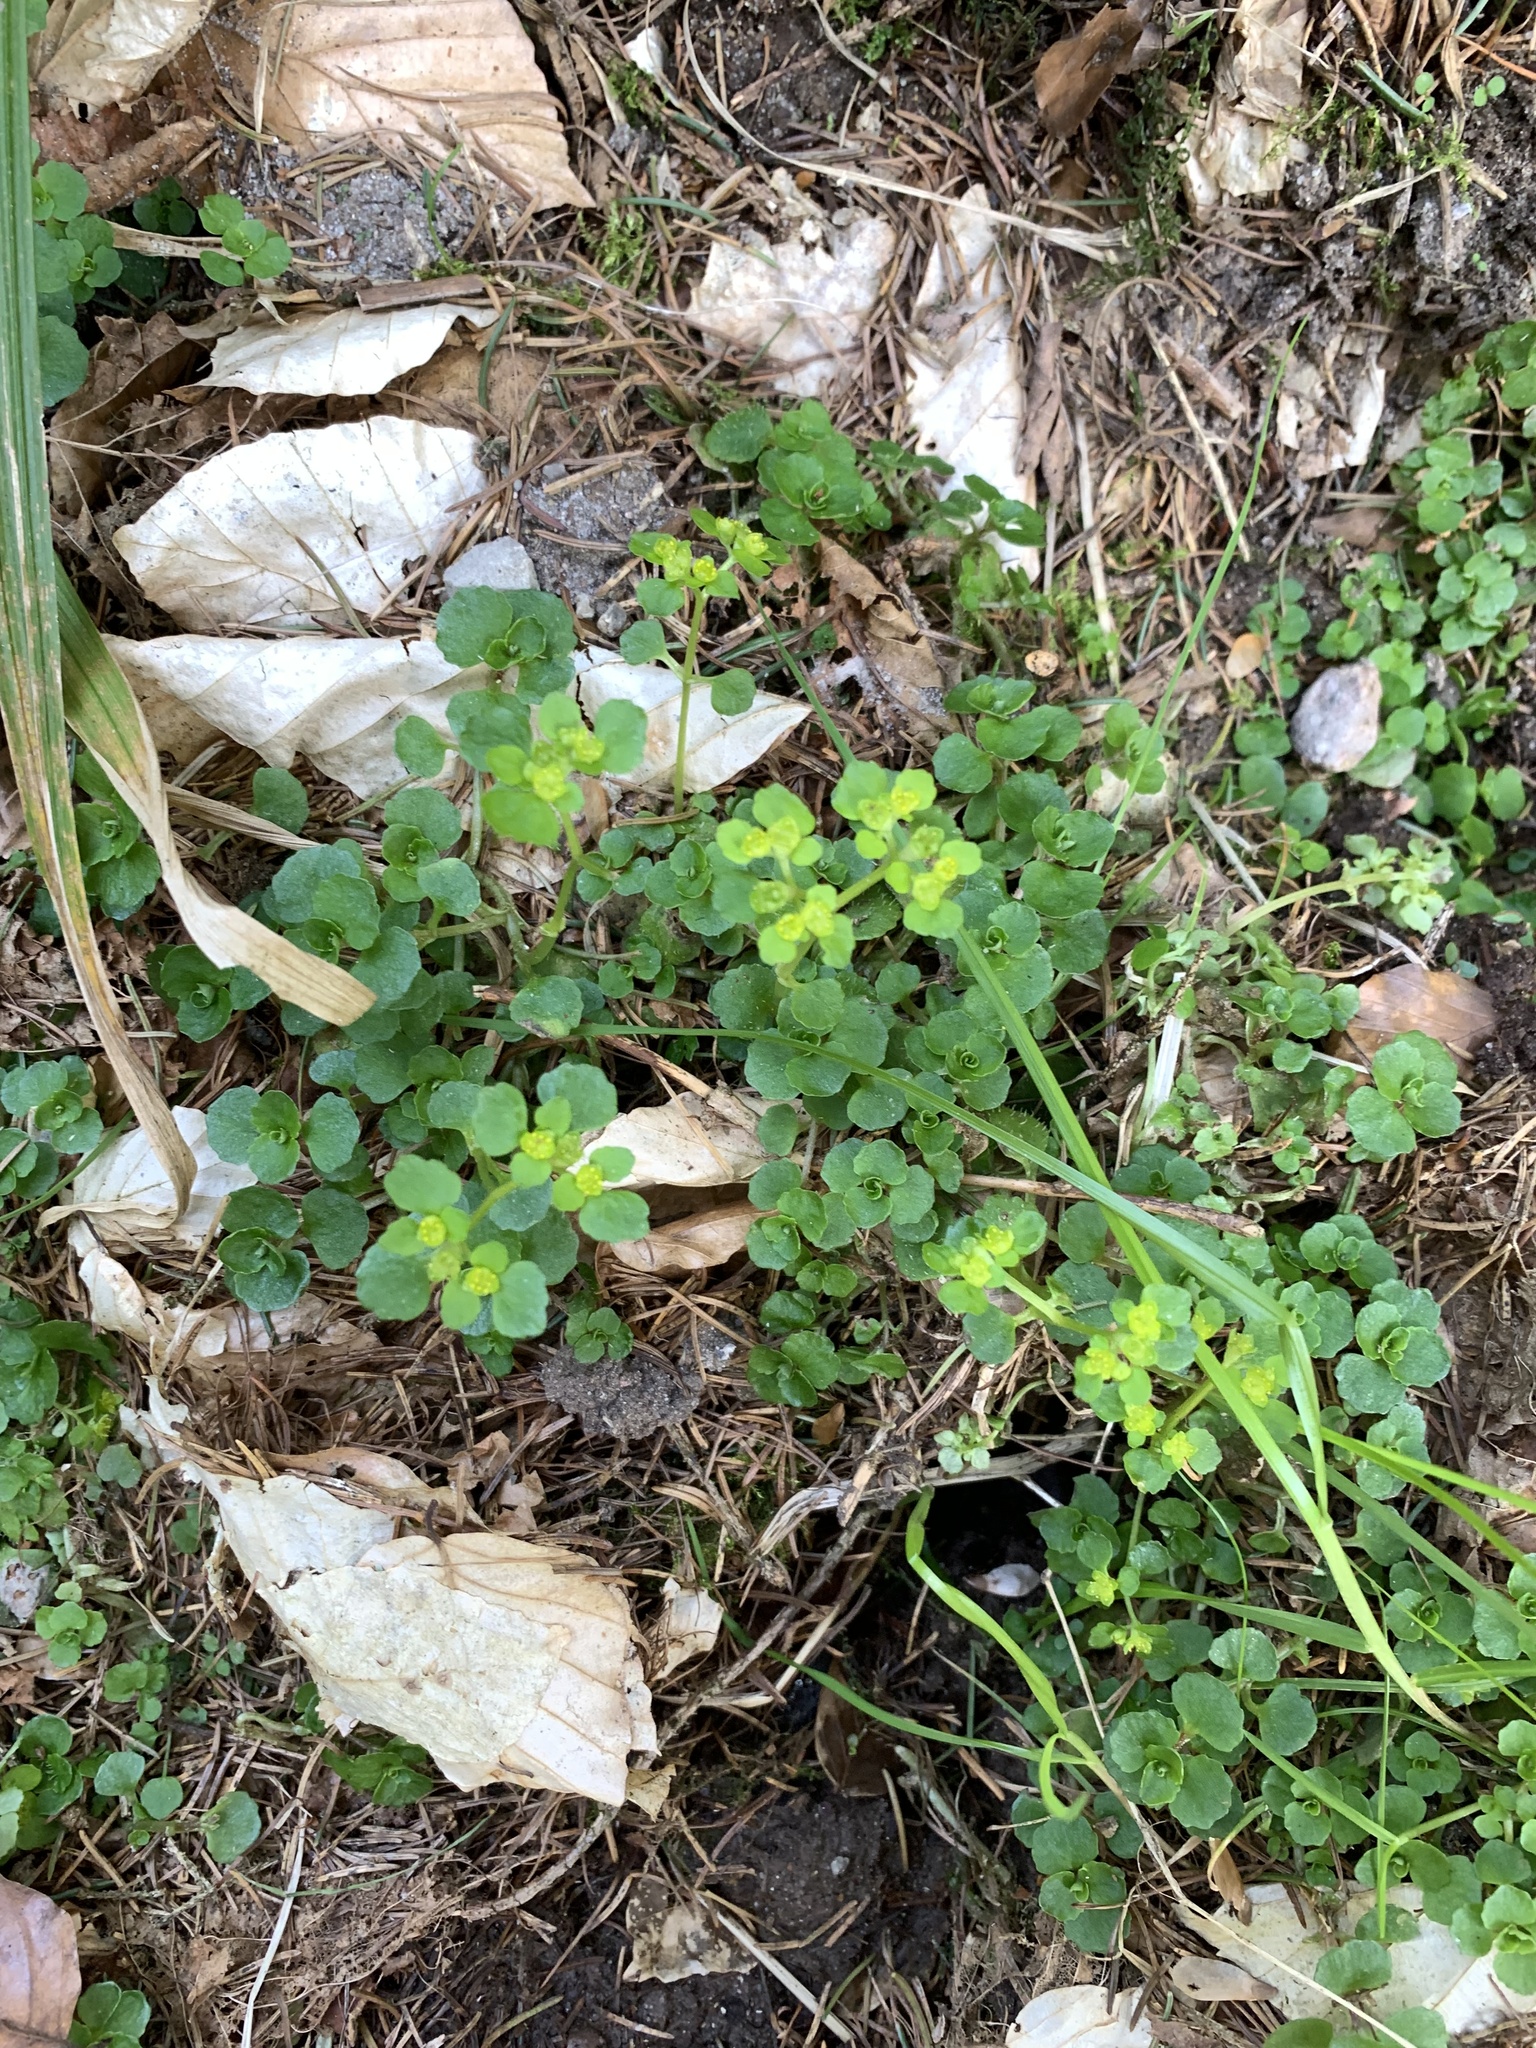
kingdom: Plantae
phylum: Tracheophyta
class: Magnoliopsida
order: Saxifragales
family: Saxifragaceae
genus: Chrysosplenium
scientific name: Chrysosplenium oppositifolium
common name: Opposite-leaved golden-saxifrage
